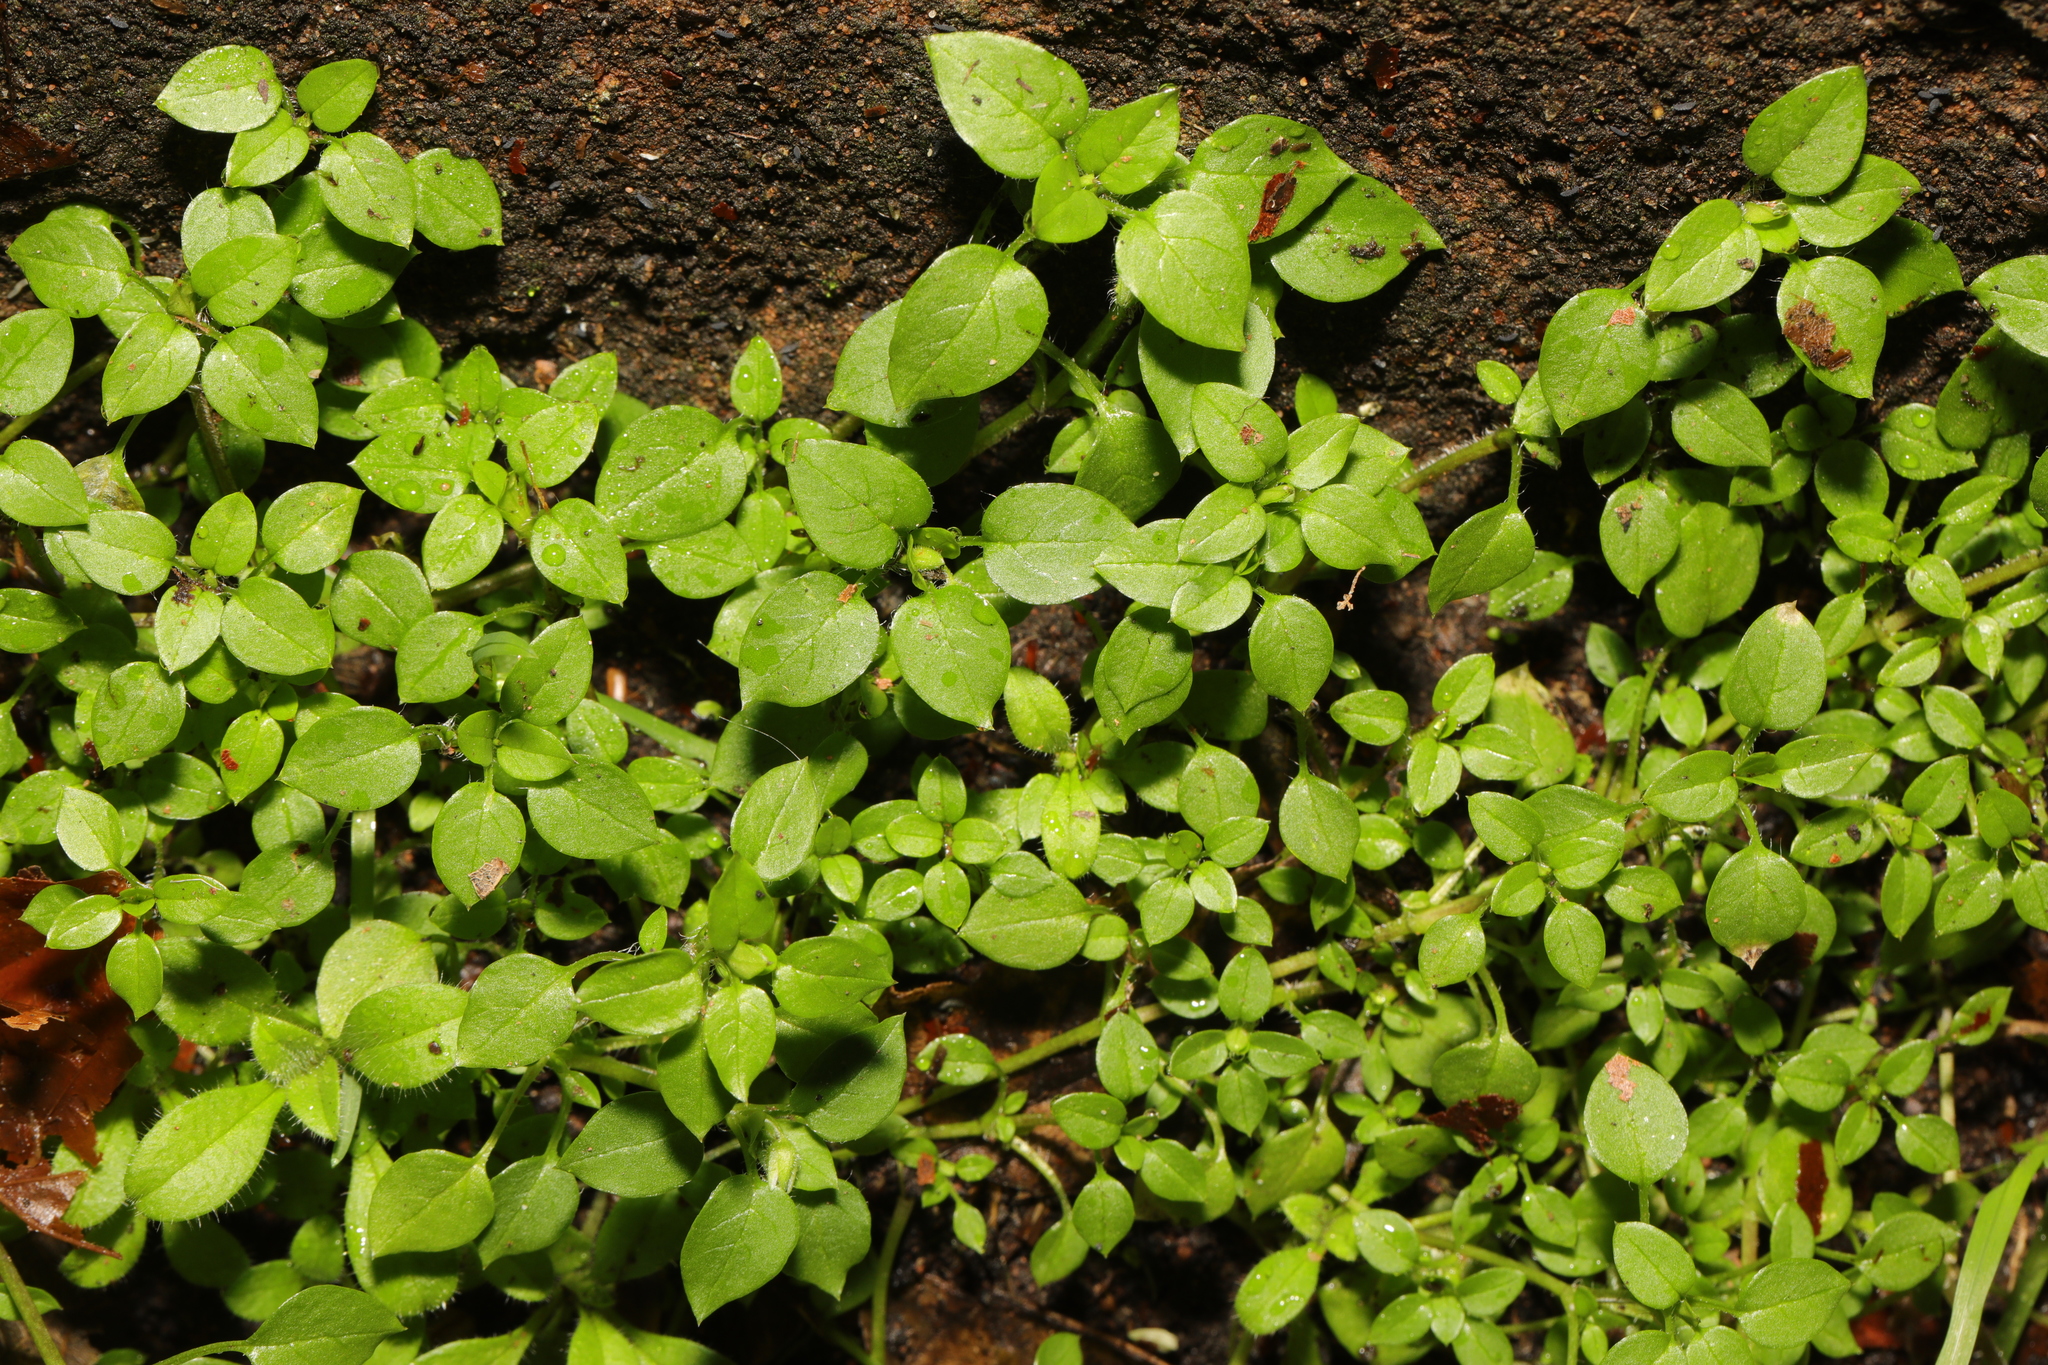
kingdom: Plantae
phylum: Tracheophyta
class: Magnoliopsida
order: Caryophyllales
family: Caryophyllaceae
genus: Stellaria
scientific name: Stellaria media
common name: Common chickweed
